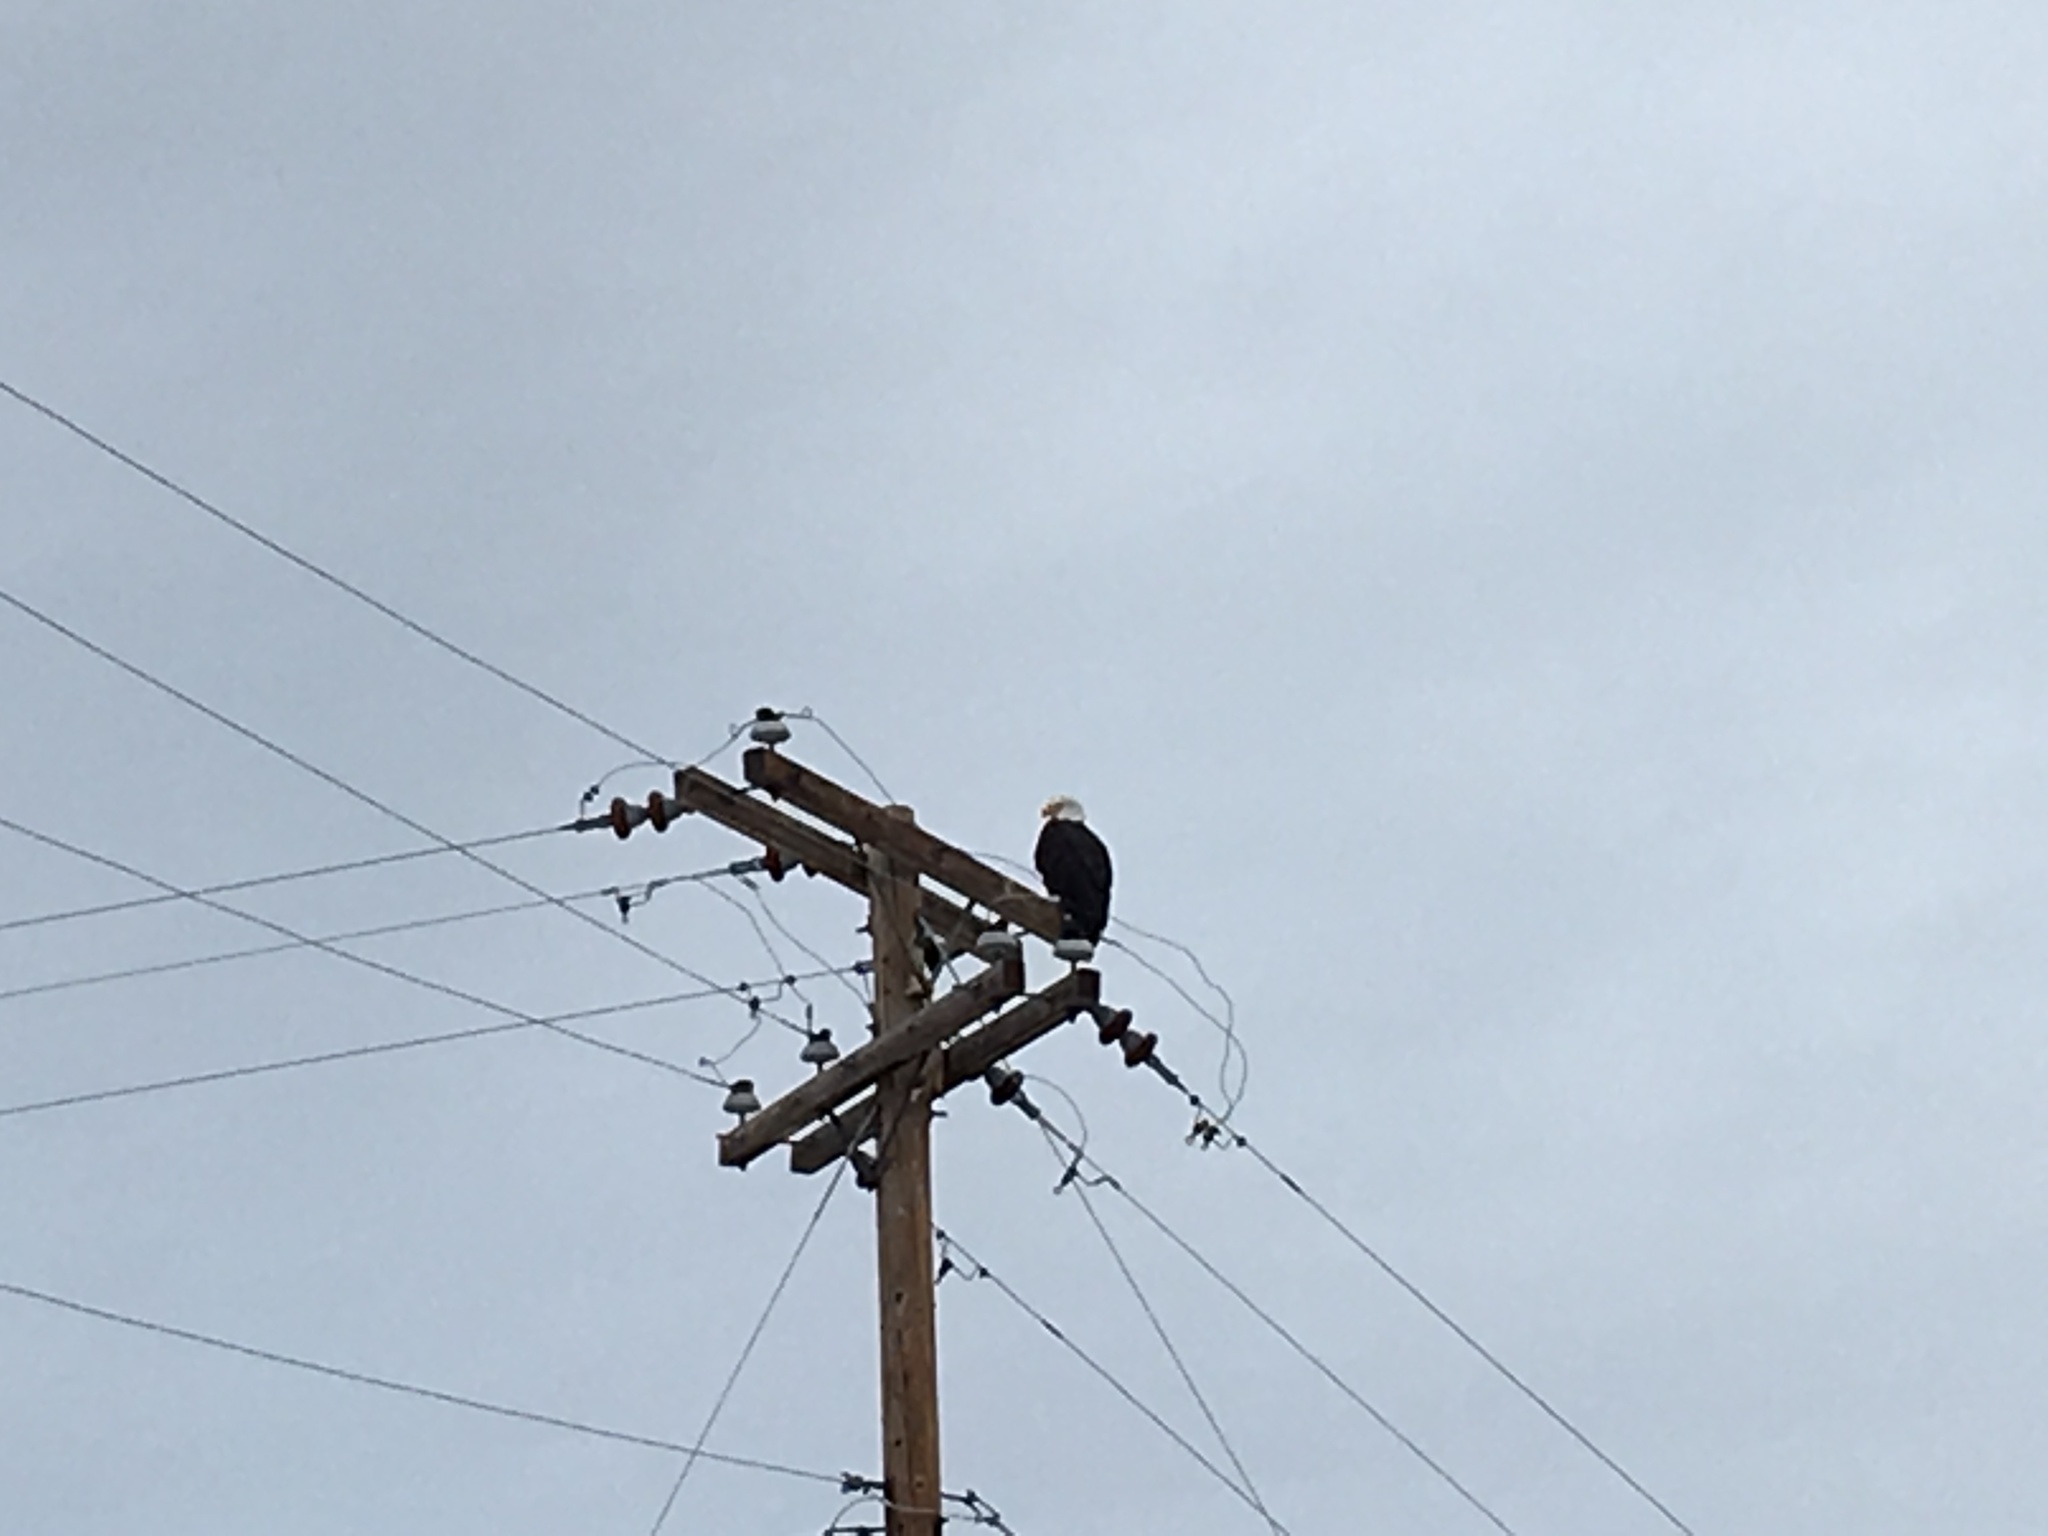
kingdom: Animalia
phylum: Chordata
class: Aves
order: Accipitriformes
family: Accipitridae
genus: Haliaeetus
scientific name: Haliaeetus leucocephalus
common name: Bald eagle
